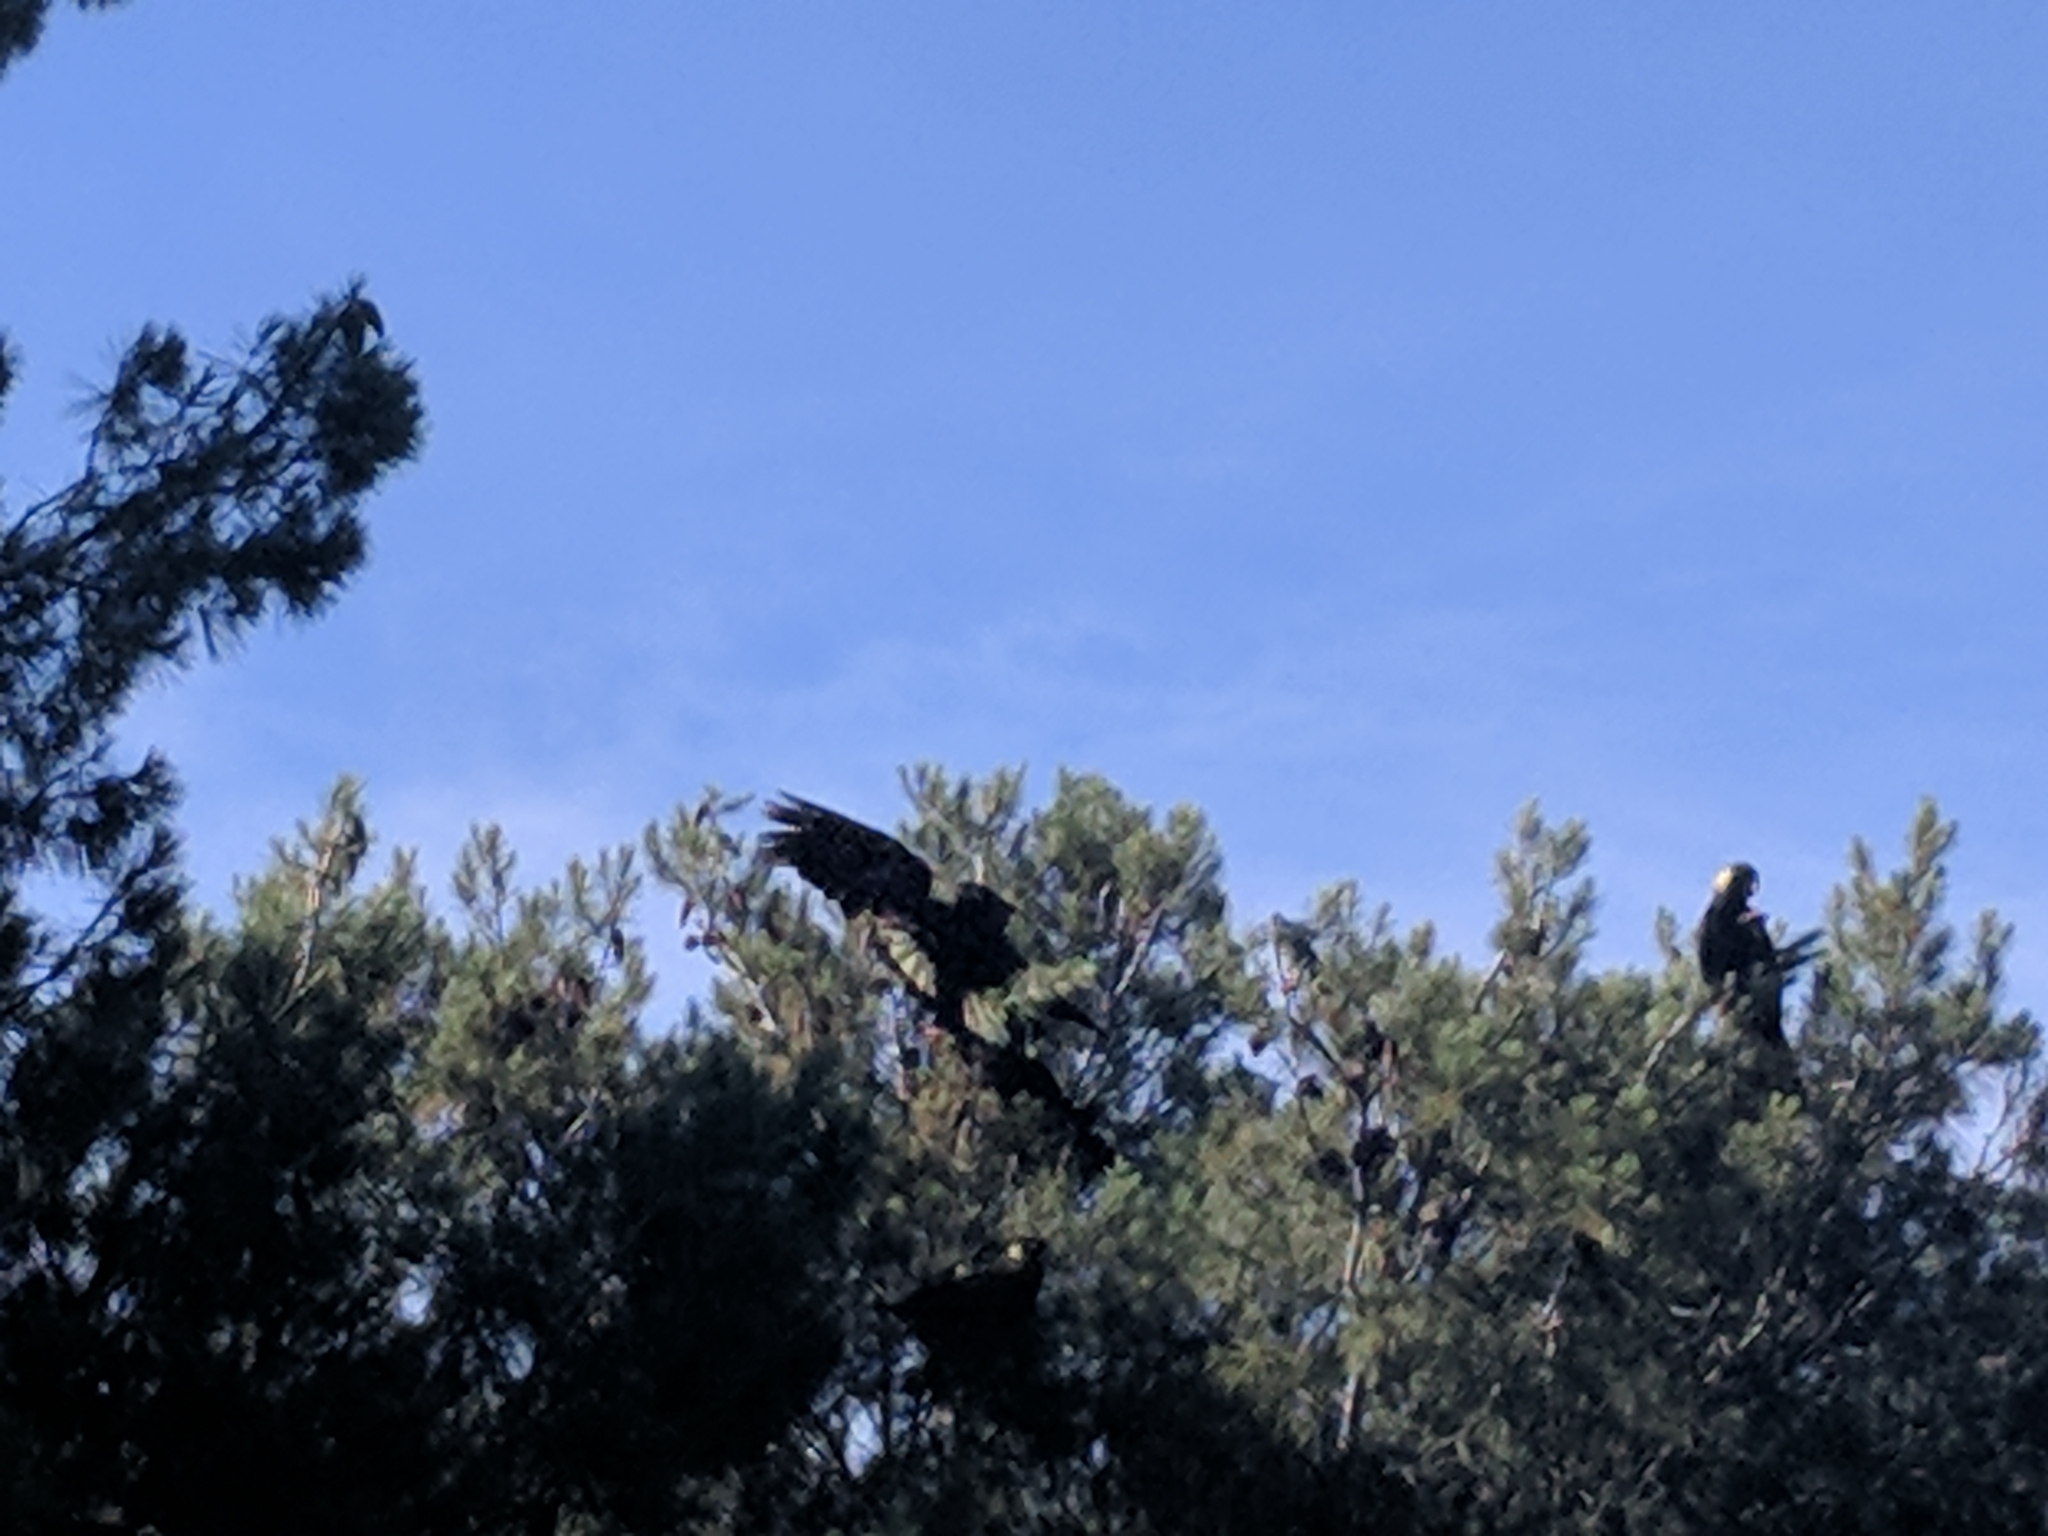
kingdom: Animalia
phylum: Chordata
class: Aves
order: Psittaciformes
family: Cacatuidae
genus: Zanda
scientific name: Zanda funerea
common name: Yellow-tailed black-cockatoo
